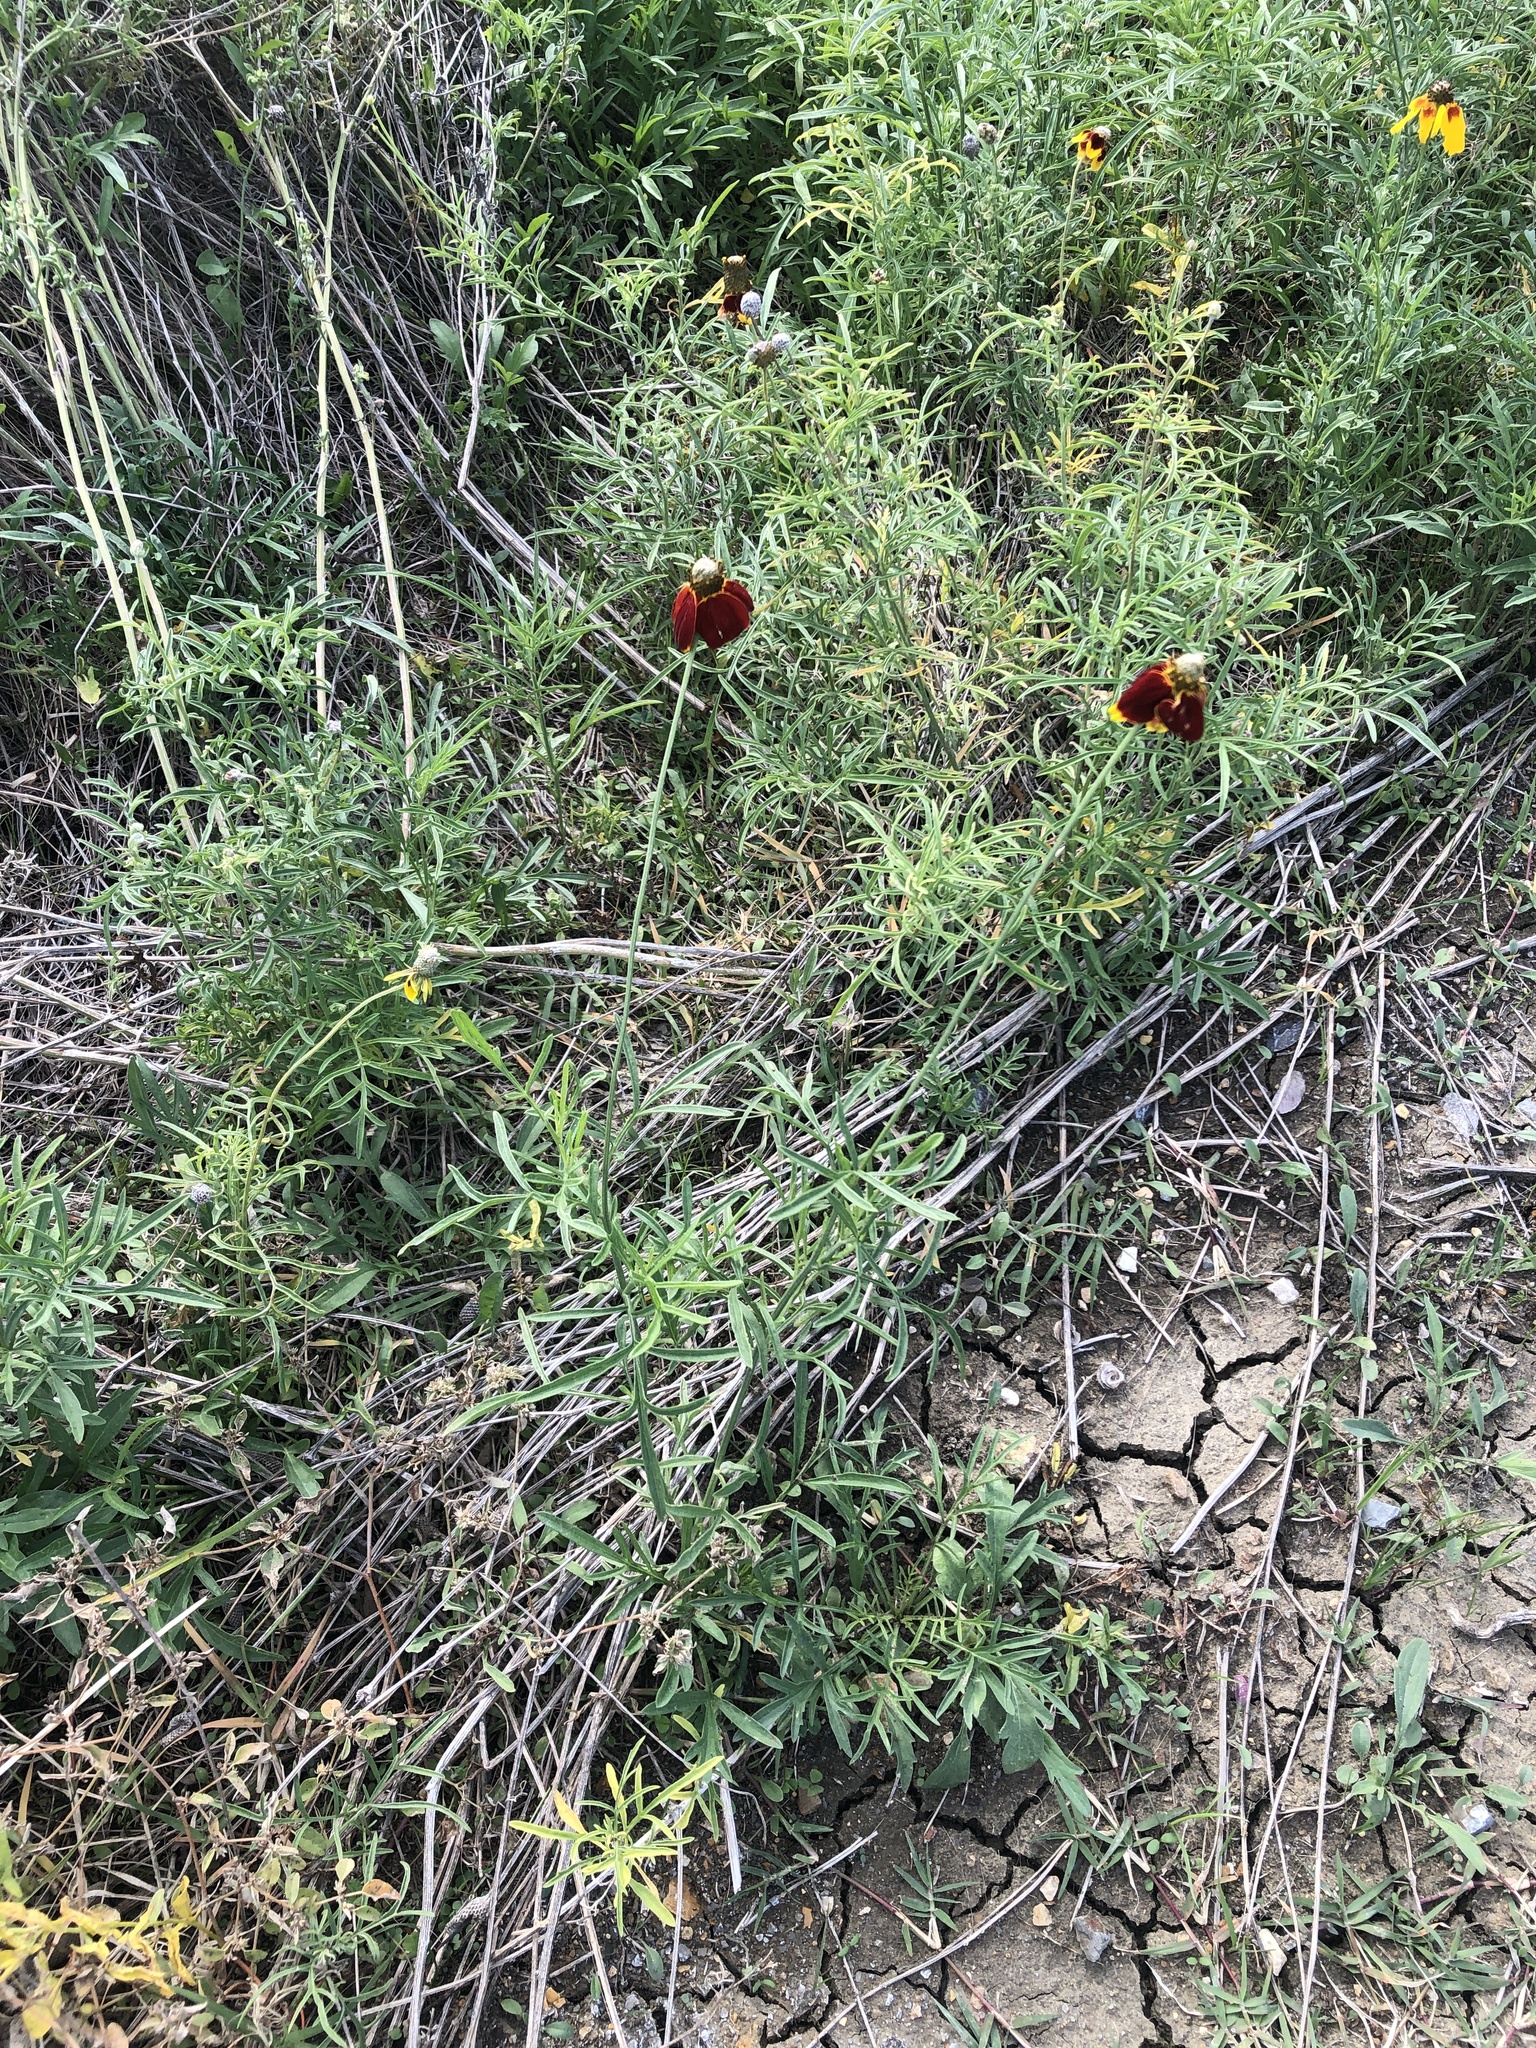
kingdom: Plantae
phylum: Tracheophyta
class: Magnoliopsida
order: Asterales
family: Asteraceae
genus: Ratibida
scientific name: Ratibida columnifera
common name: Prairie coneflower
